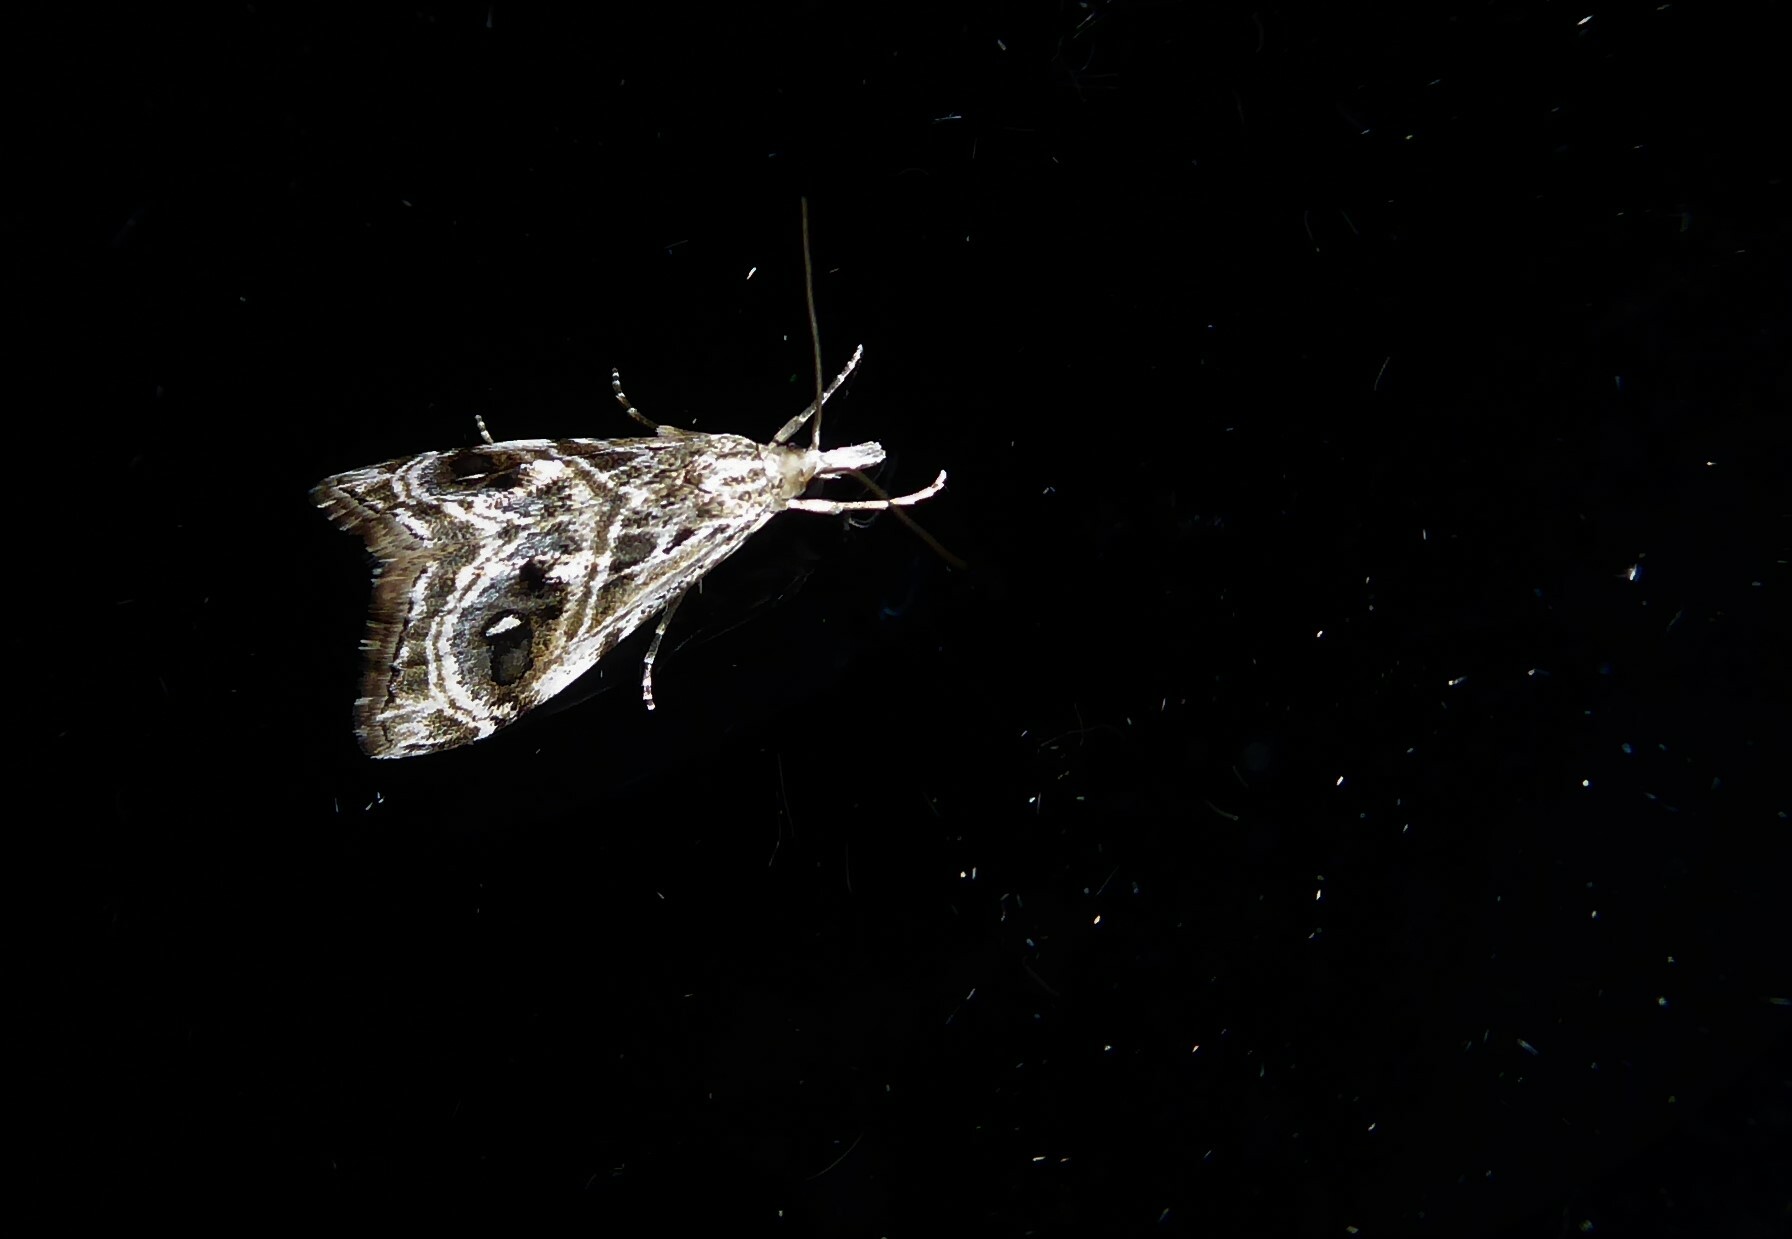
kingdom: Animalia
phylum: Arthropoda
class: Insecta
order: Lepidoptera
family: Crambidae
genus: Gadira
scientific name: Gadira acerella
